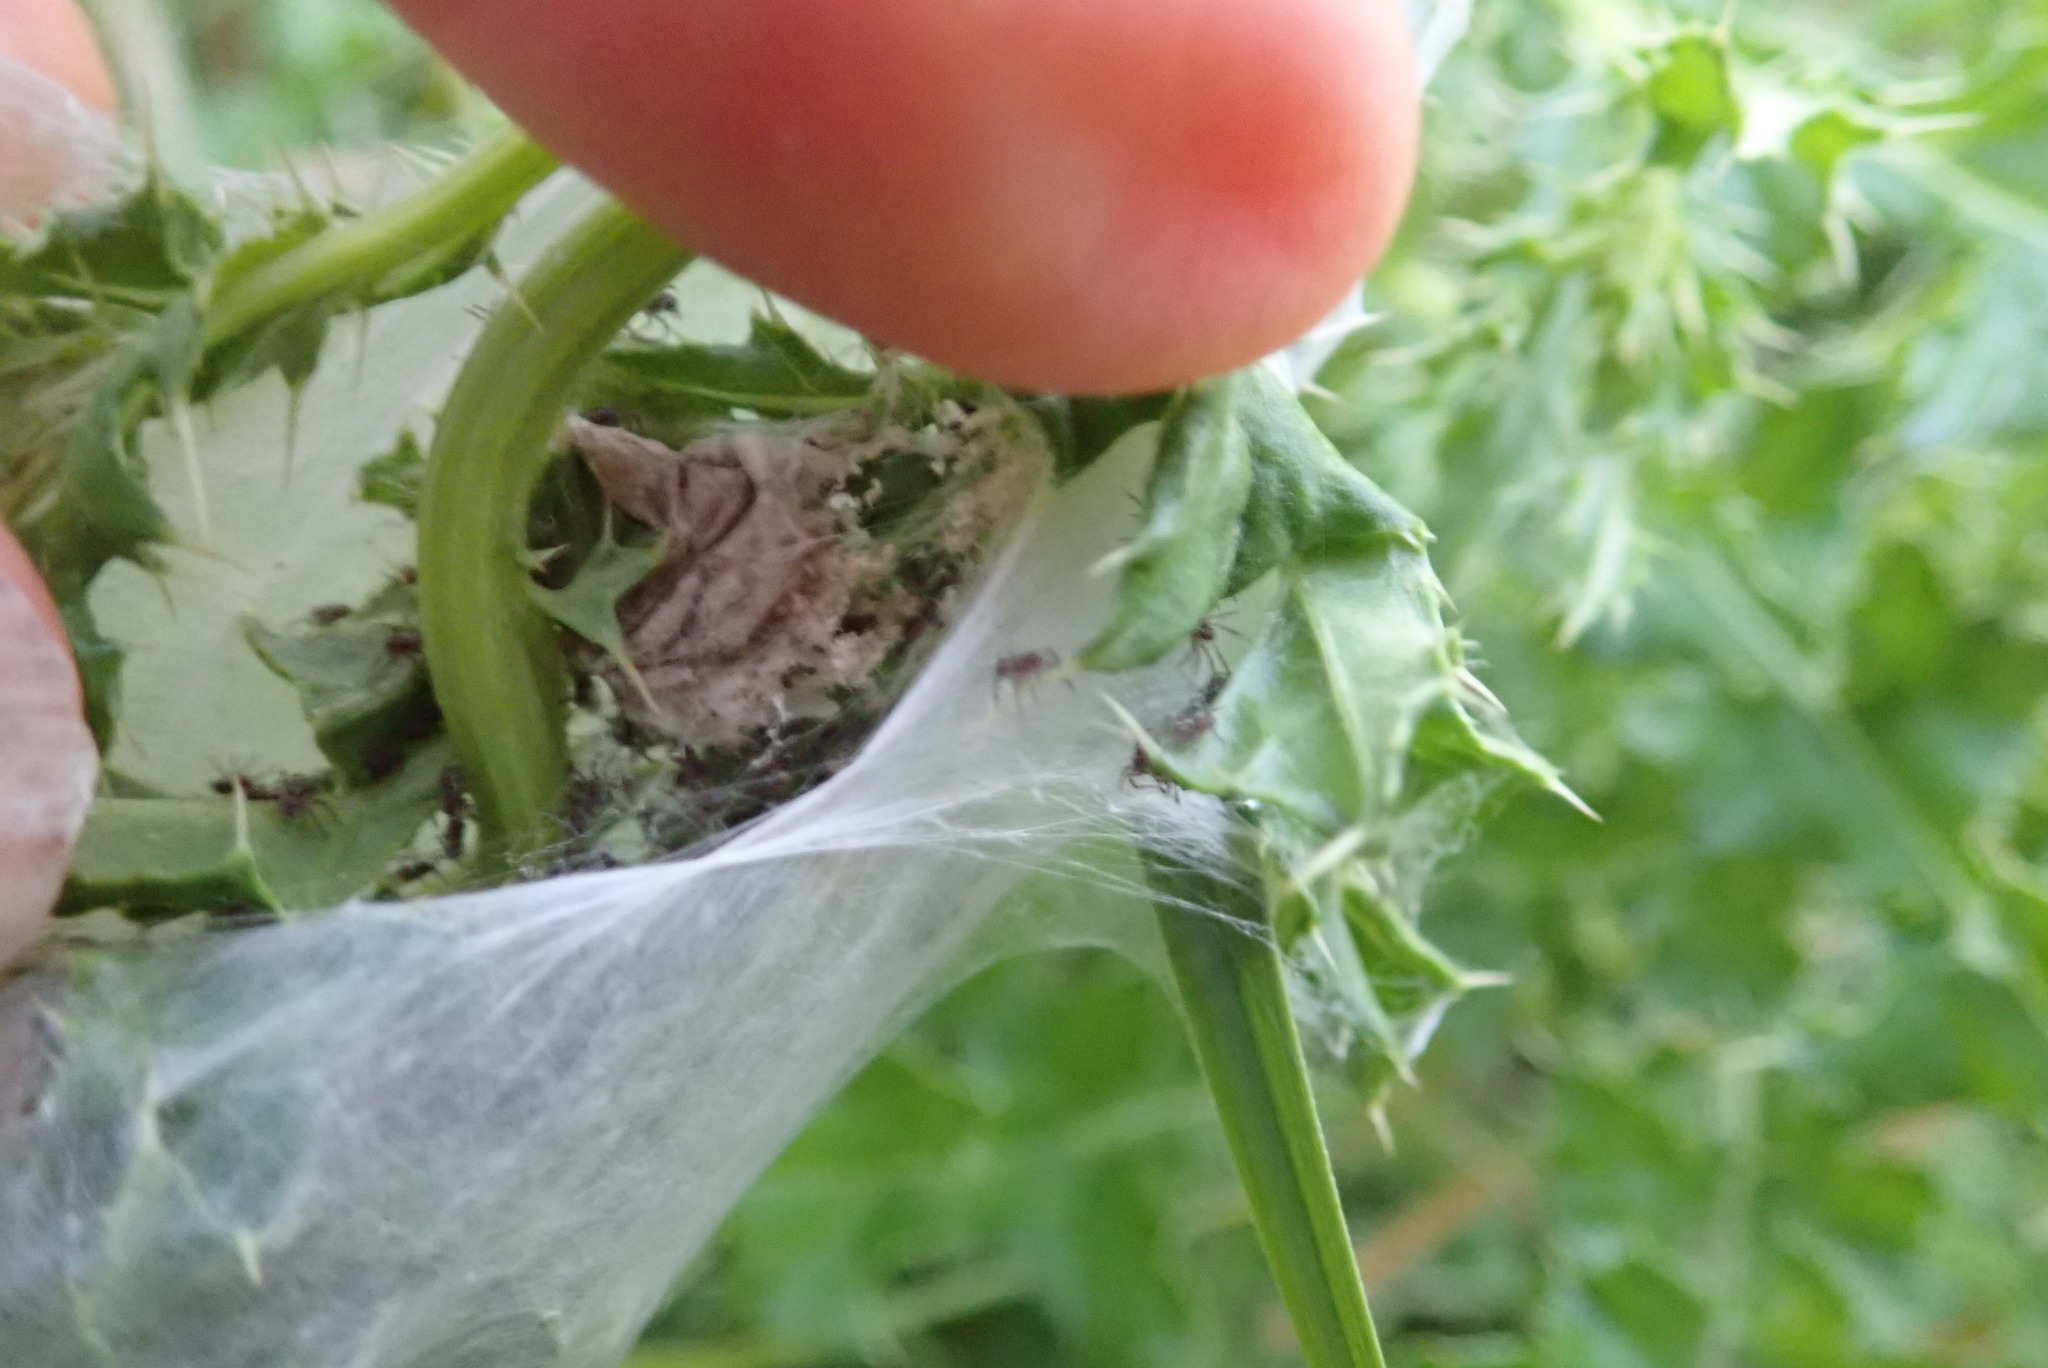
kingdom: Animalia
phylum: Arthropoda
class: Arachnida
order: Araneae
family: Pisauridae
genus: Dolomedes
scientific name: Dolomedes minor
